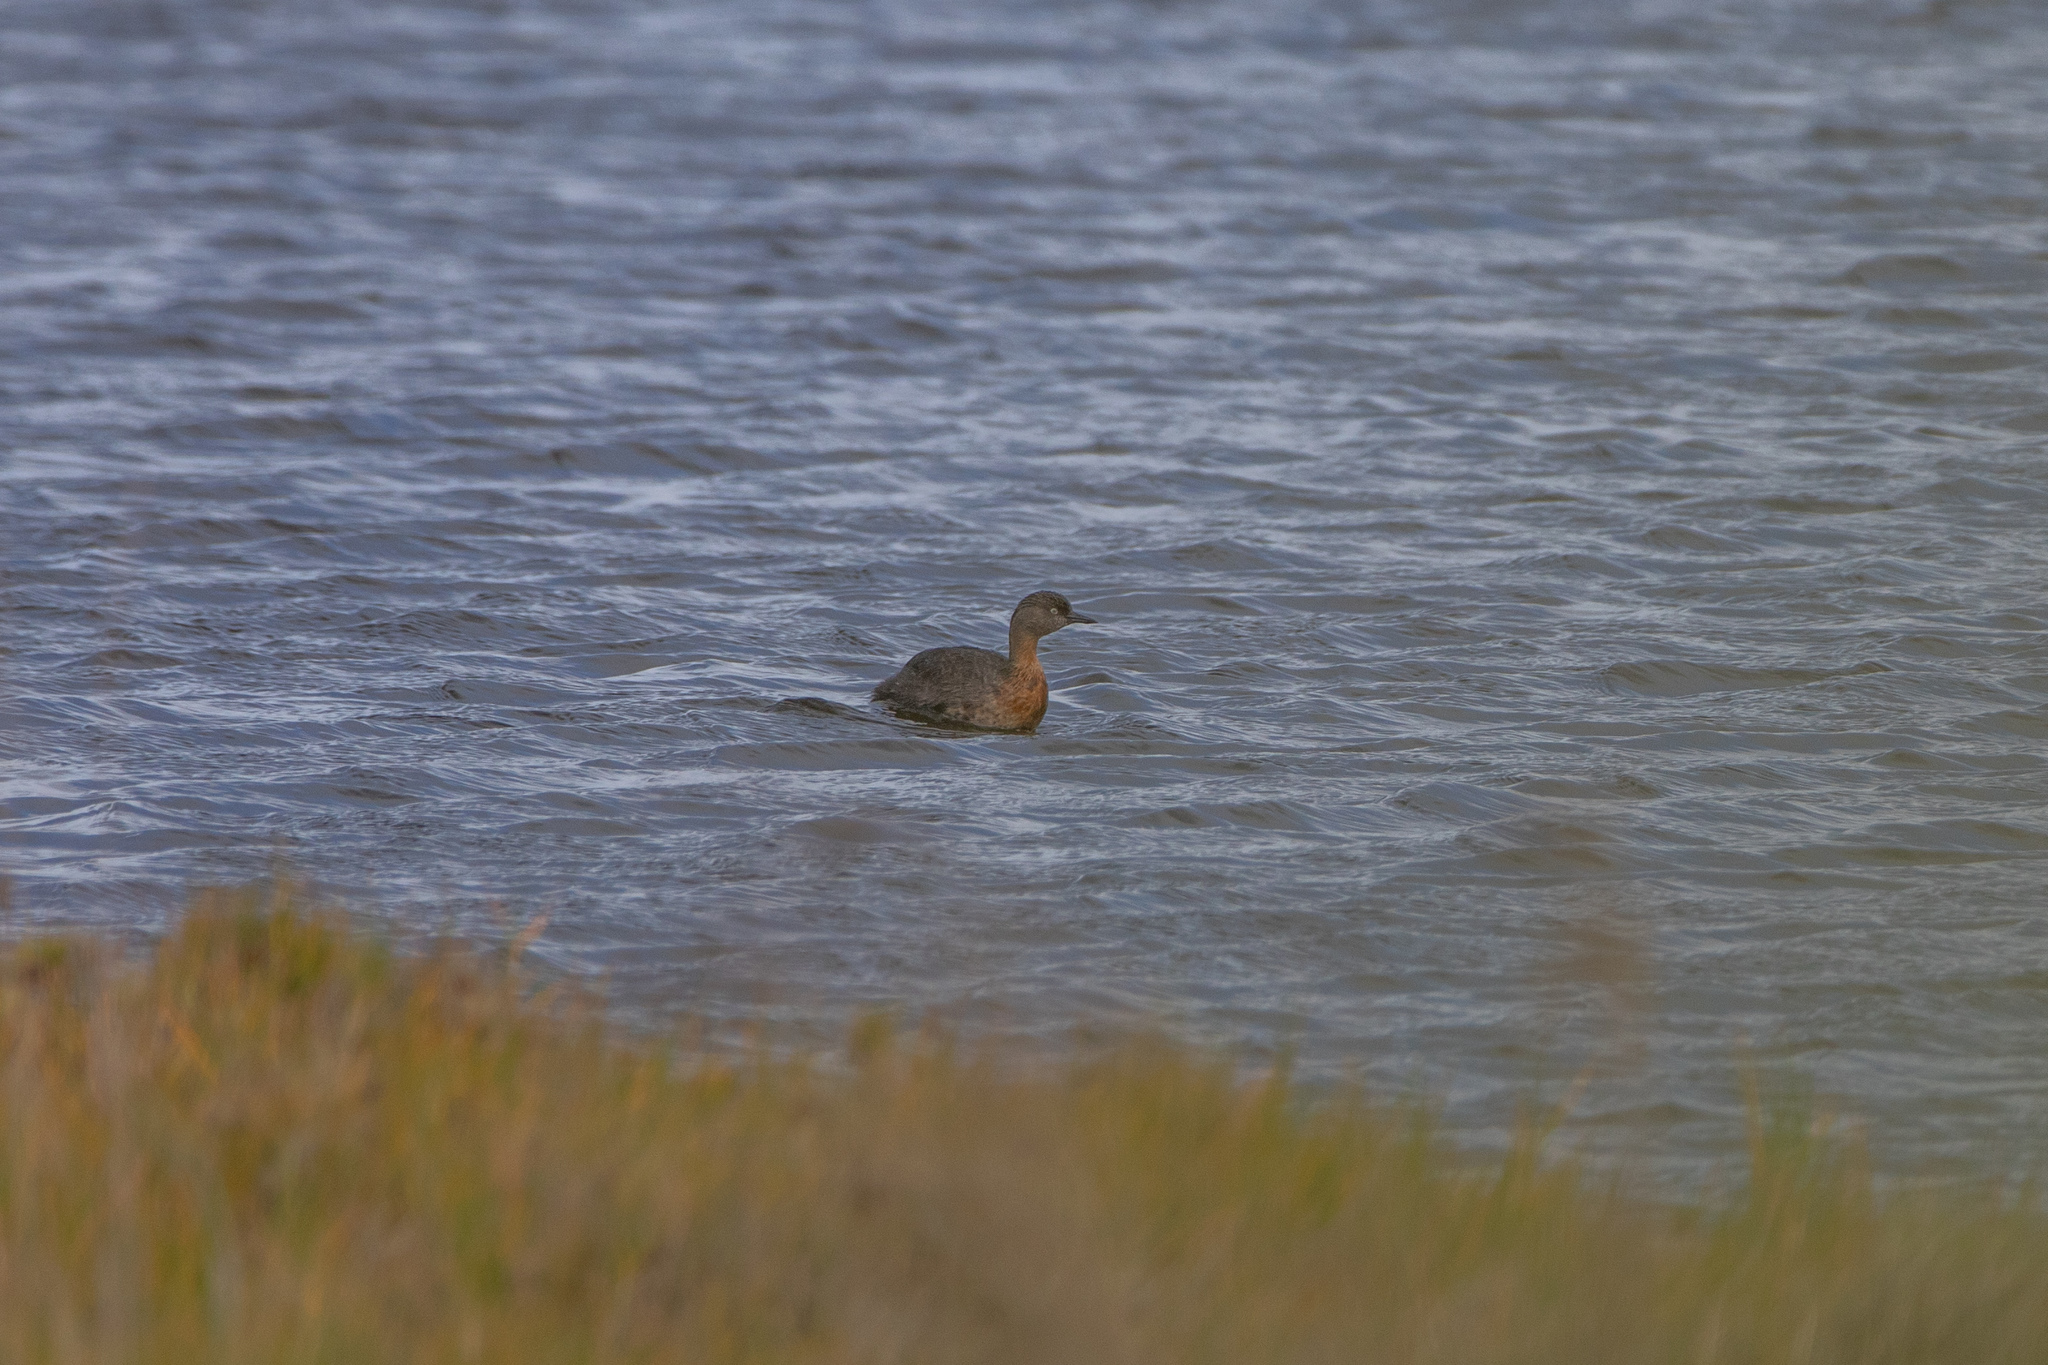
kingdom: Animalia
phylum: Chordata
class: Aves
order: Podicipediformes
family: Podicipedidae
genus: Poliocephalus
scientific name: Poliocephalus rufopectus
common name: New zealand grebe
